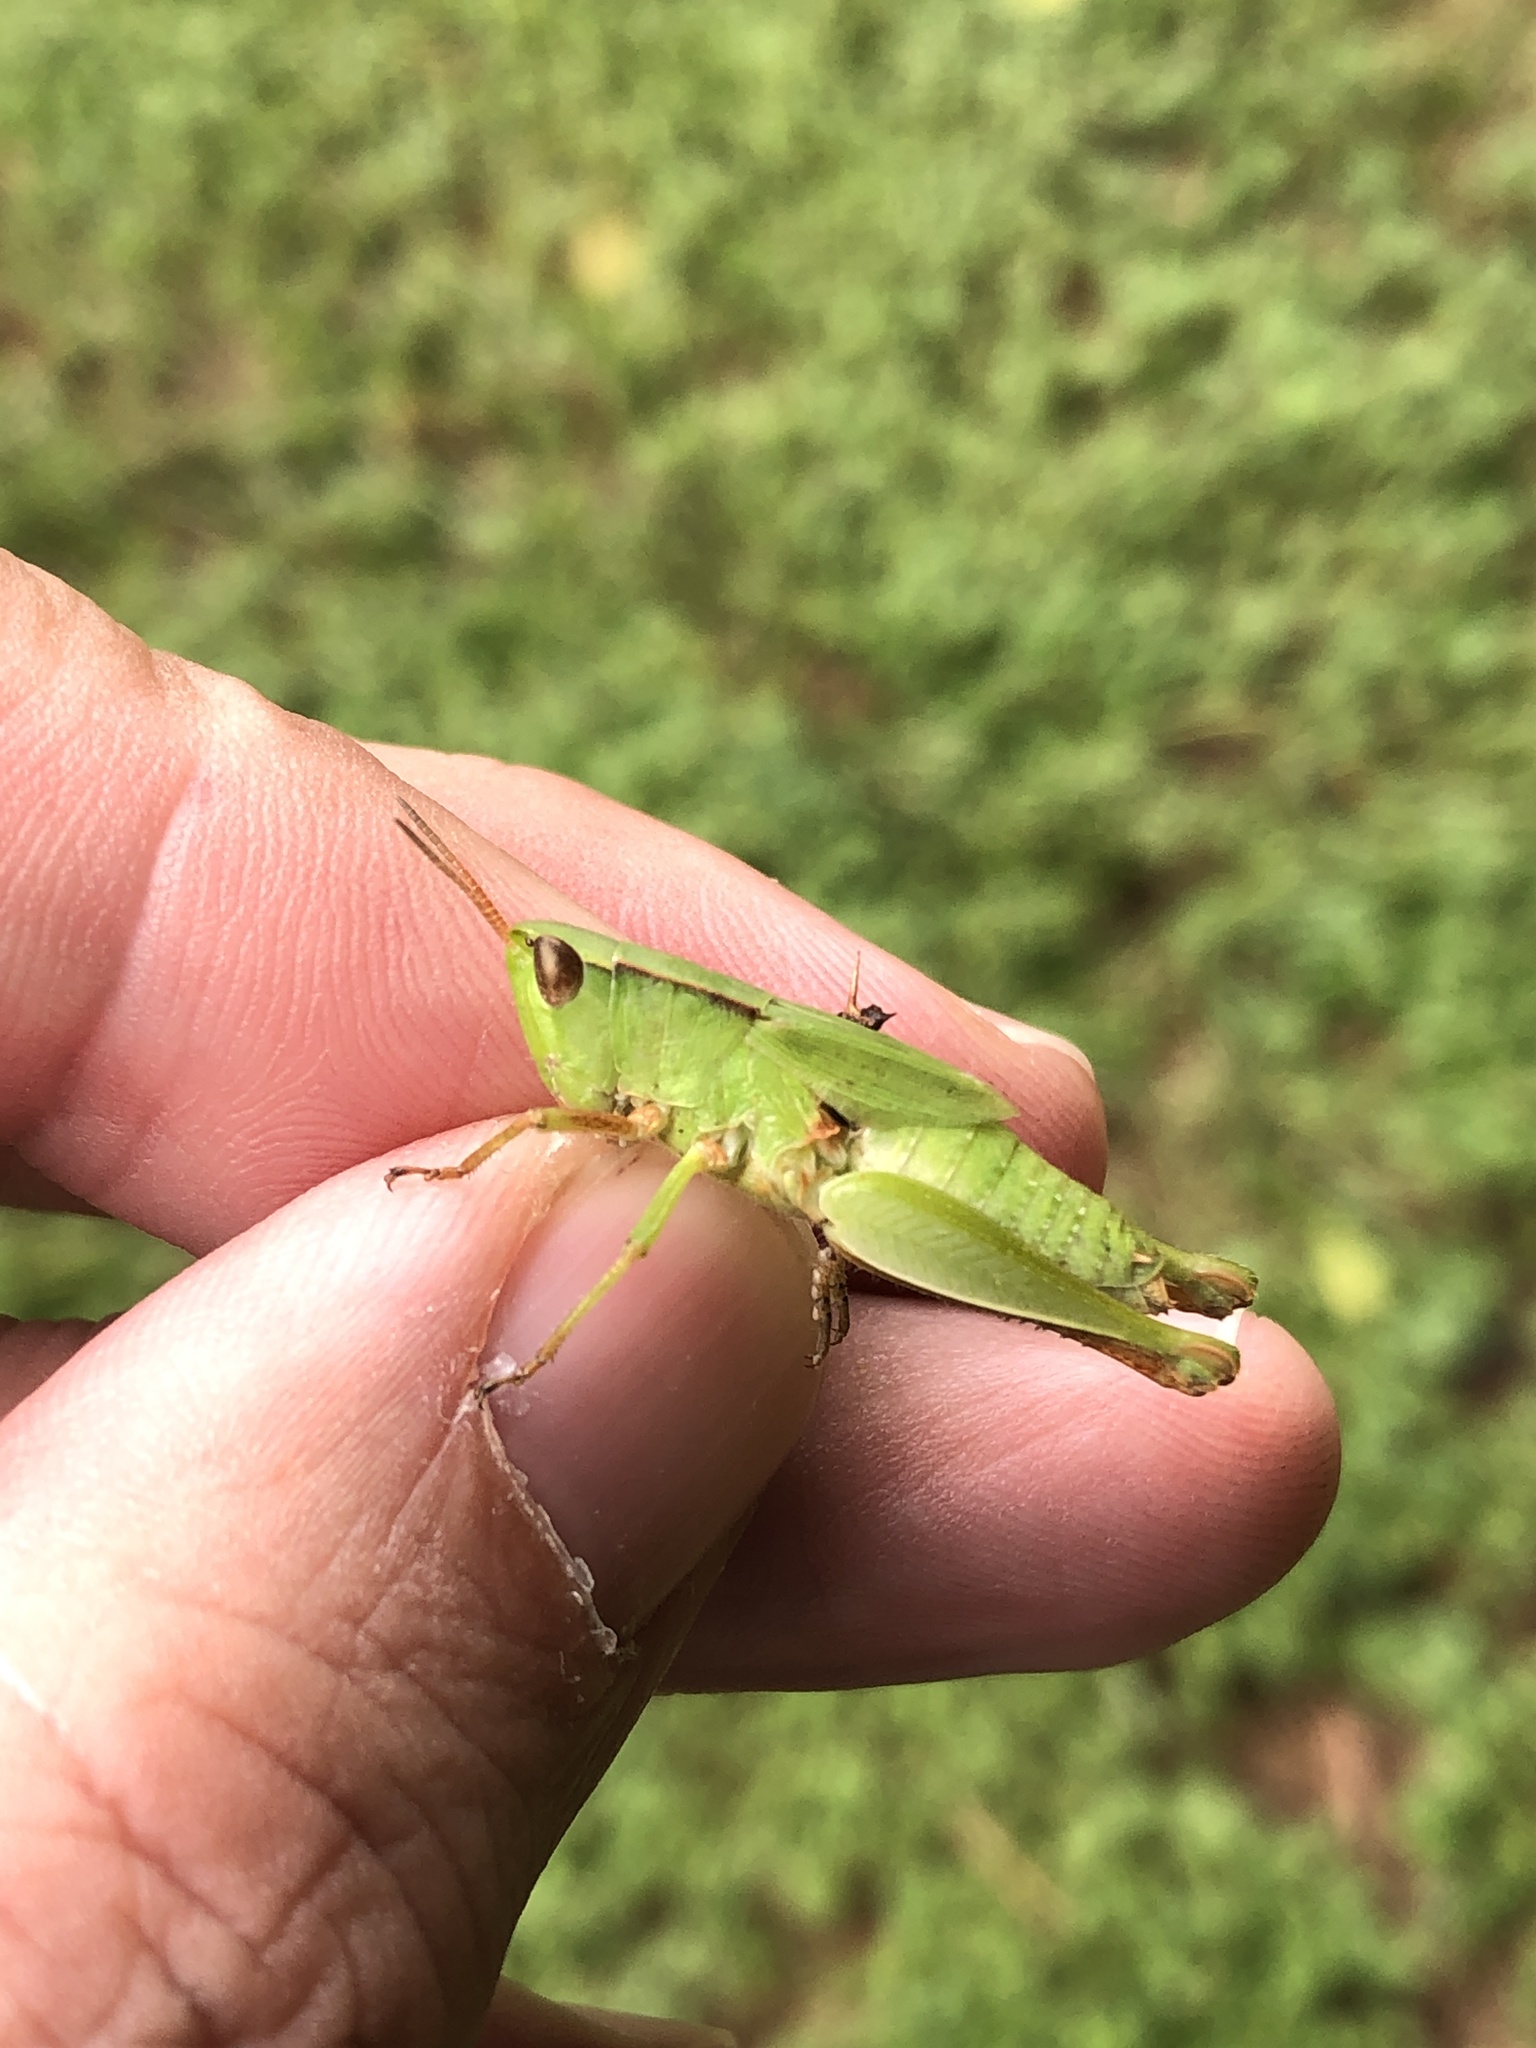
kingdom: Animalia
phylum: Arthropoda
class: Insecta
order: Orthoptera
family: Acrididae
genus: Dichromorpha
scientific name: Dichromorpha viridis
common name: Short-winged green grasshopper
